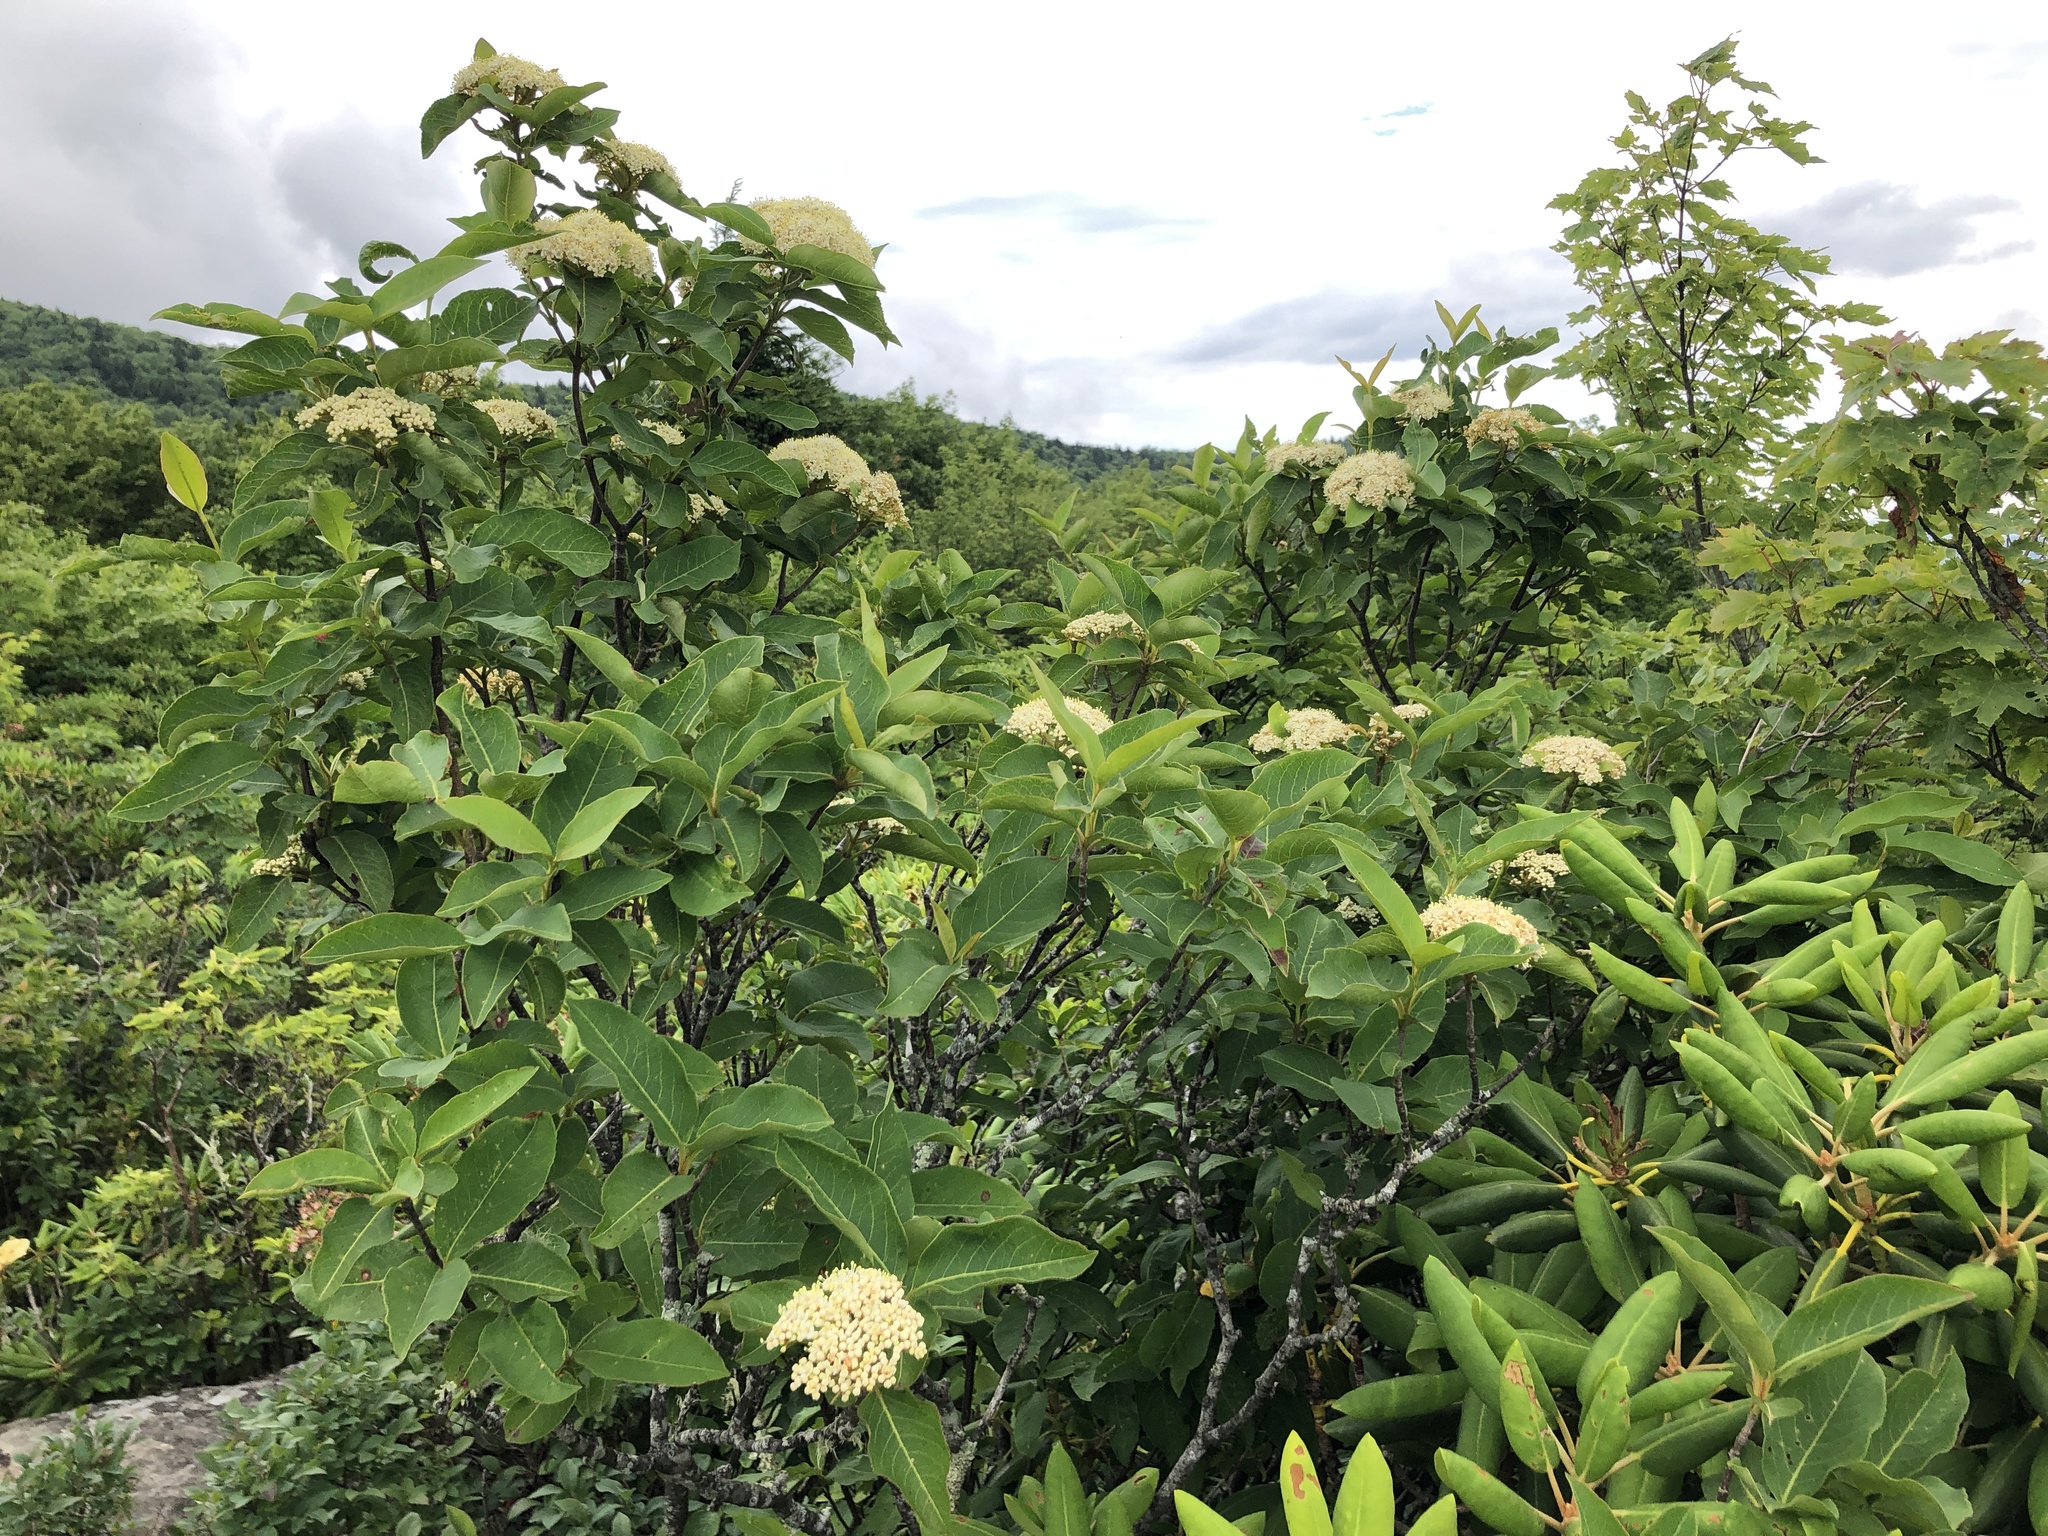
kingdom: Plantae
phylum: Tracheophyta
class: Magnoliopsida
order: Dipsacales
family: Viburnaceae
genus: Viburnum
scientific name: Viburnum cassinoides
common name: Swamp haw
